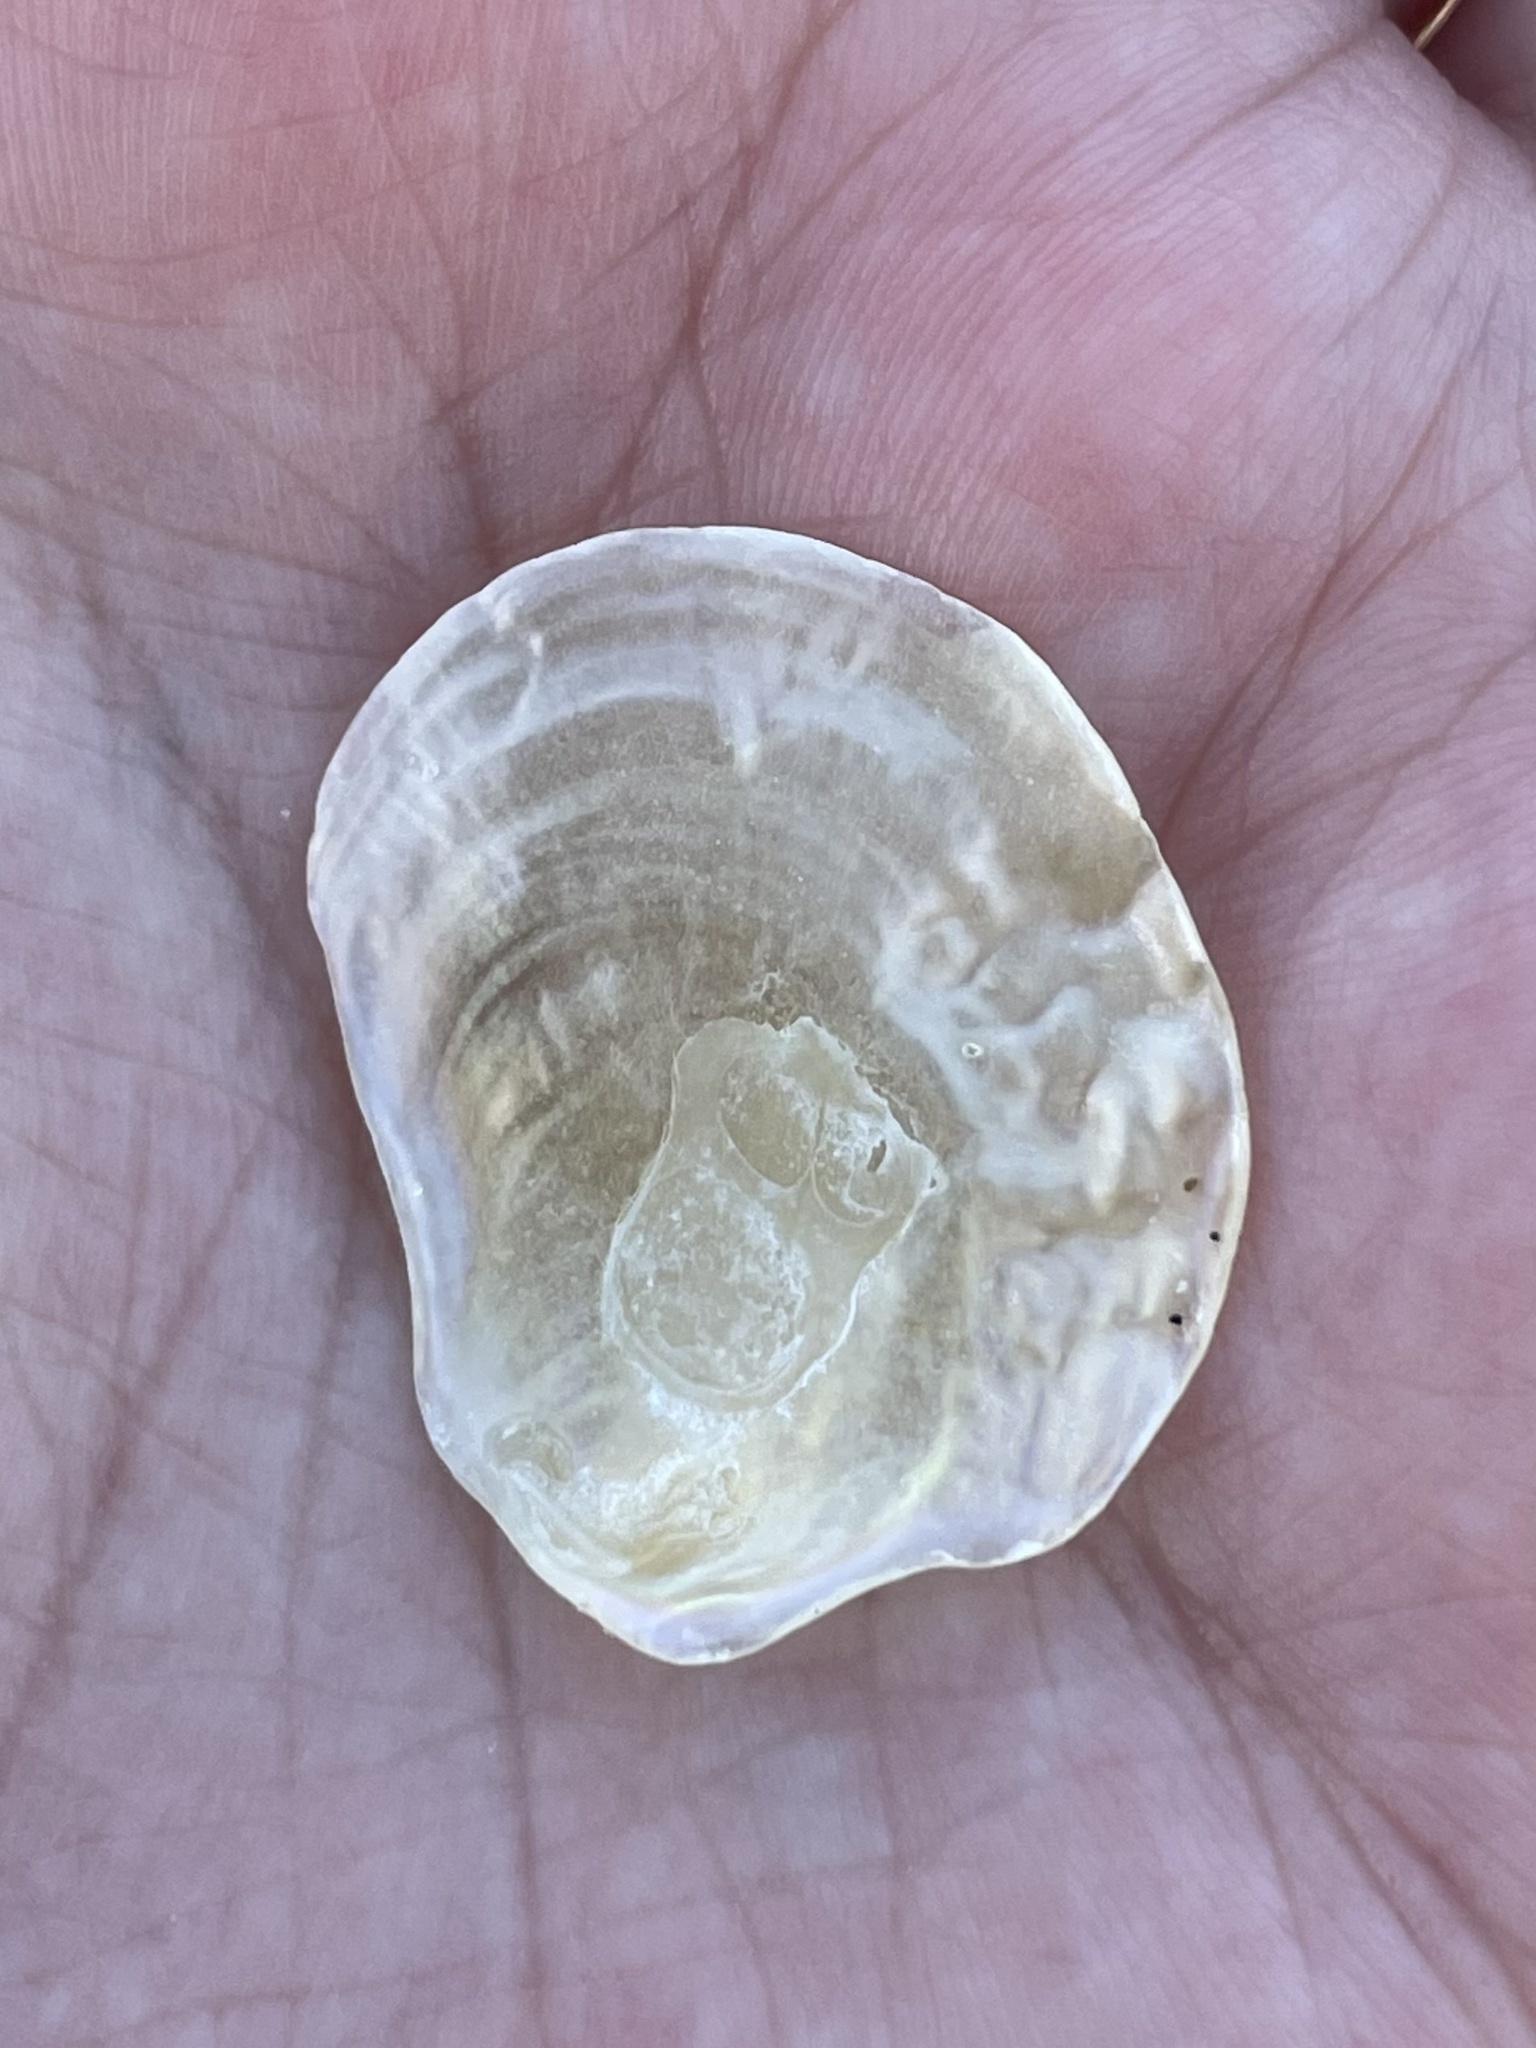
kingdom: Animalia
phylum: Mollusca
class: Bivalvia
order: Pectinida
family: Anomiidae
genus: Anomia
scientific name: Anomia simplex
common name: Common jingle shell
